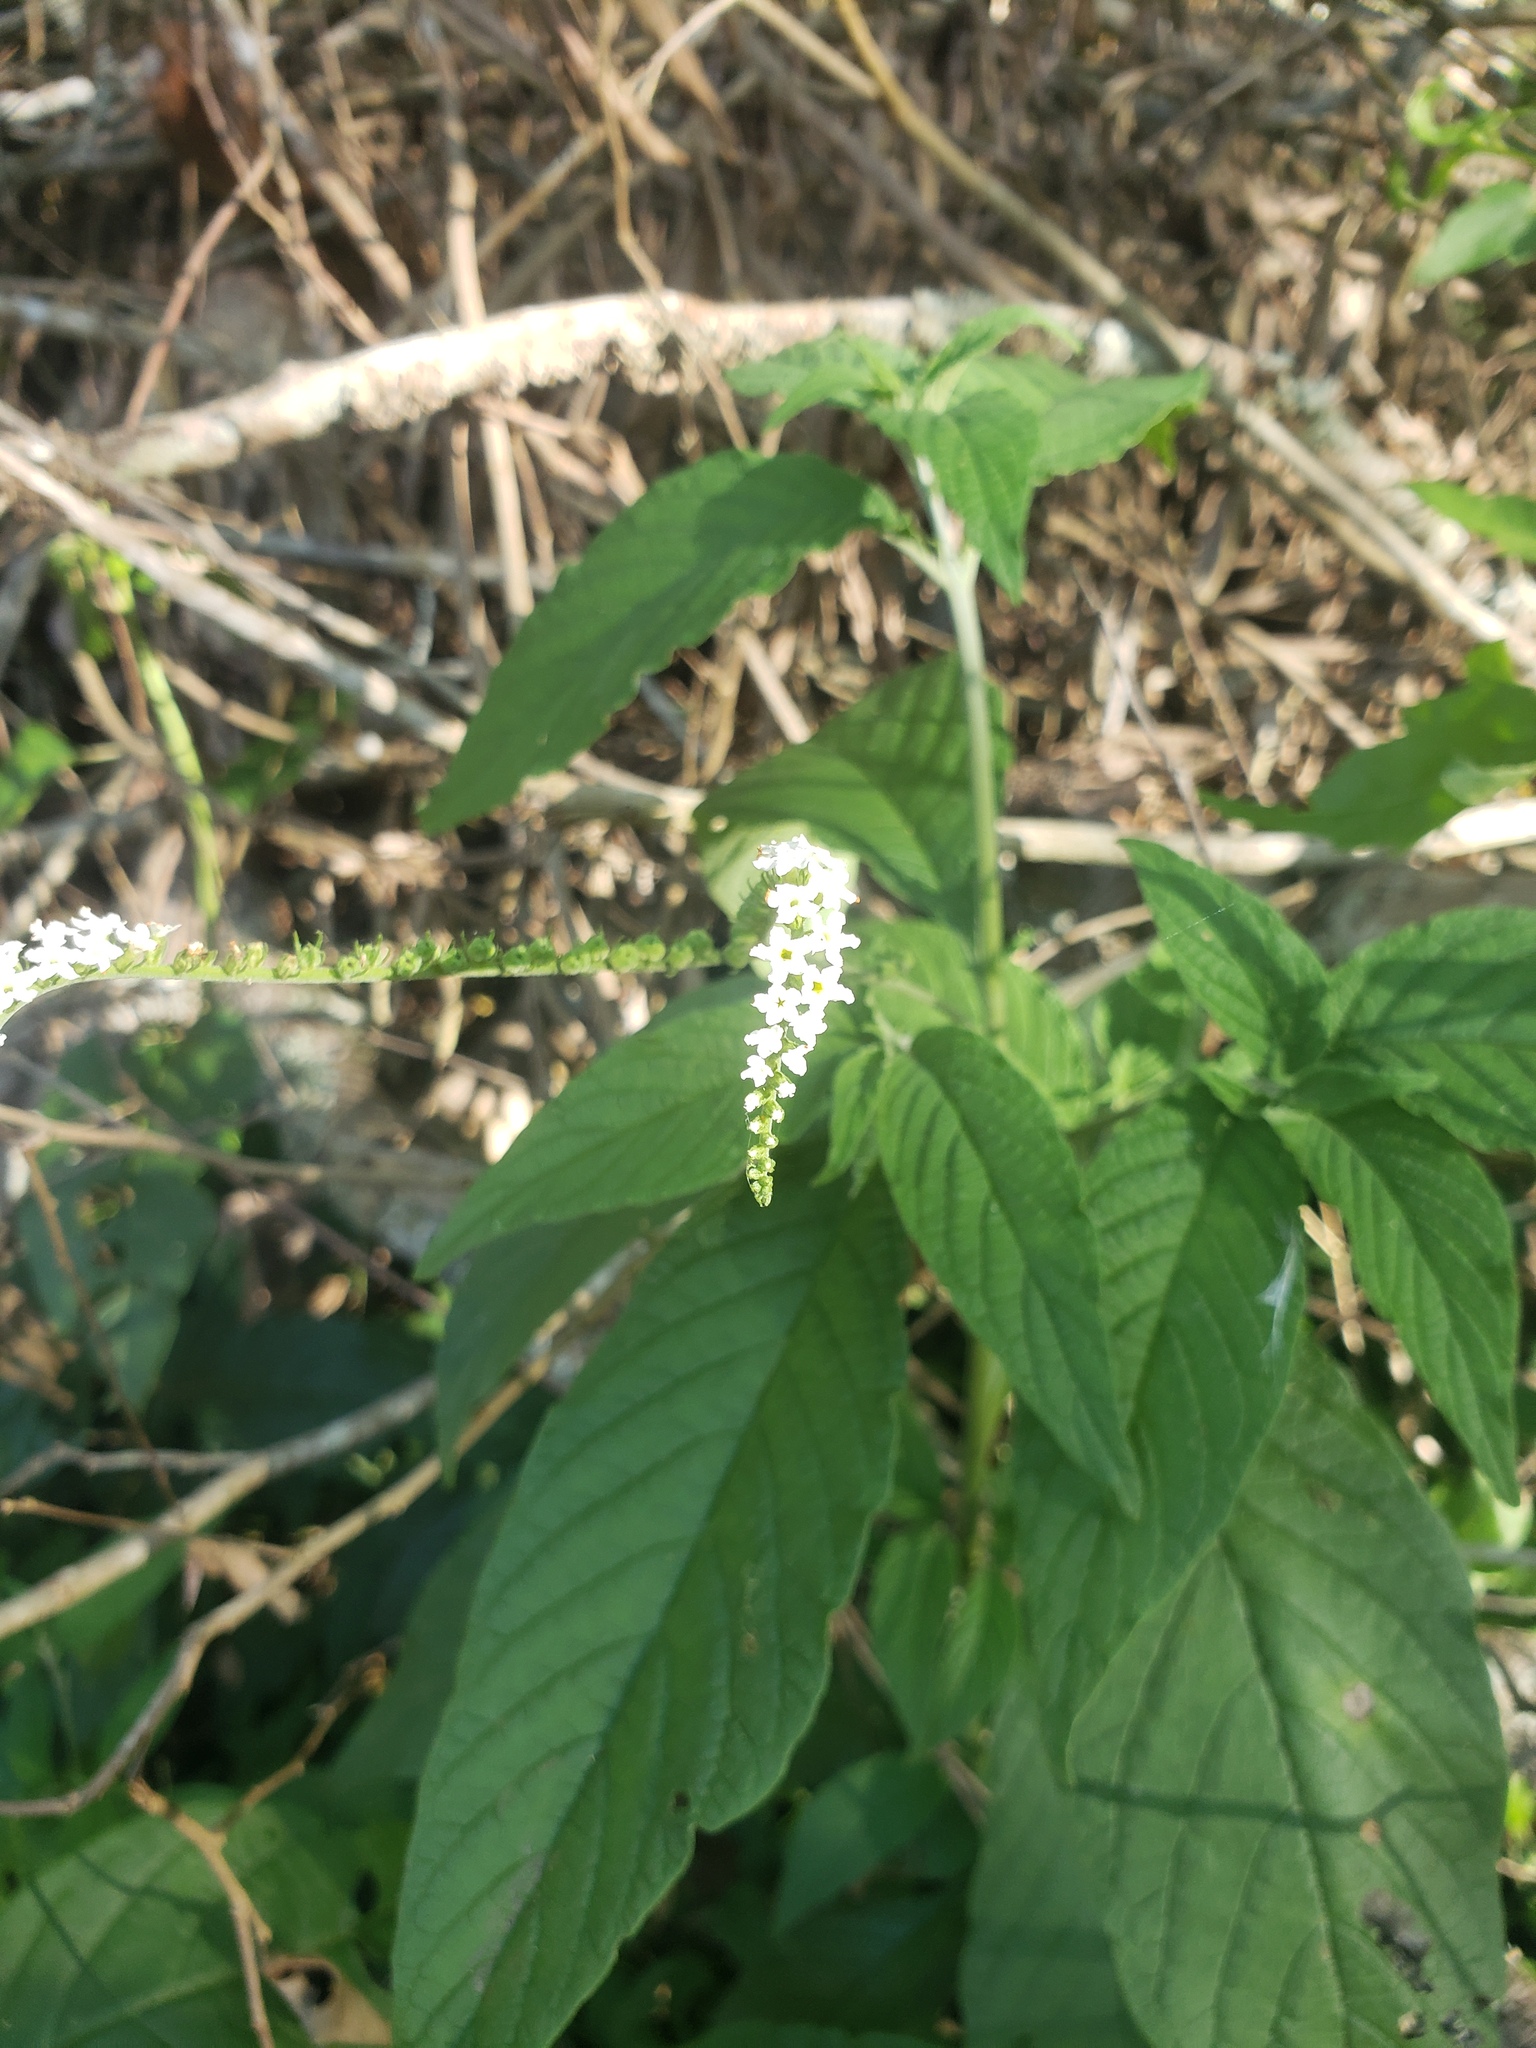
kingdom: Plantae
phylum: Tracheophyta
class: Magnoliopsida
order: Boraginales
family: Heliotropiaceae
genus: Heliotropium
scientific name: Heliotropium transalpinum
